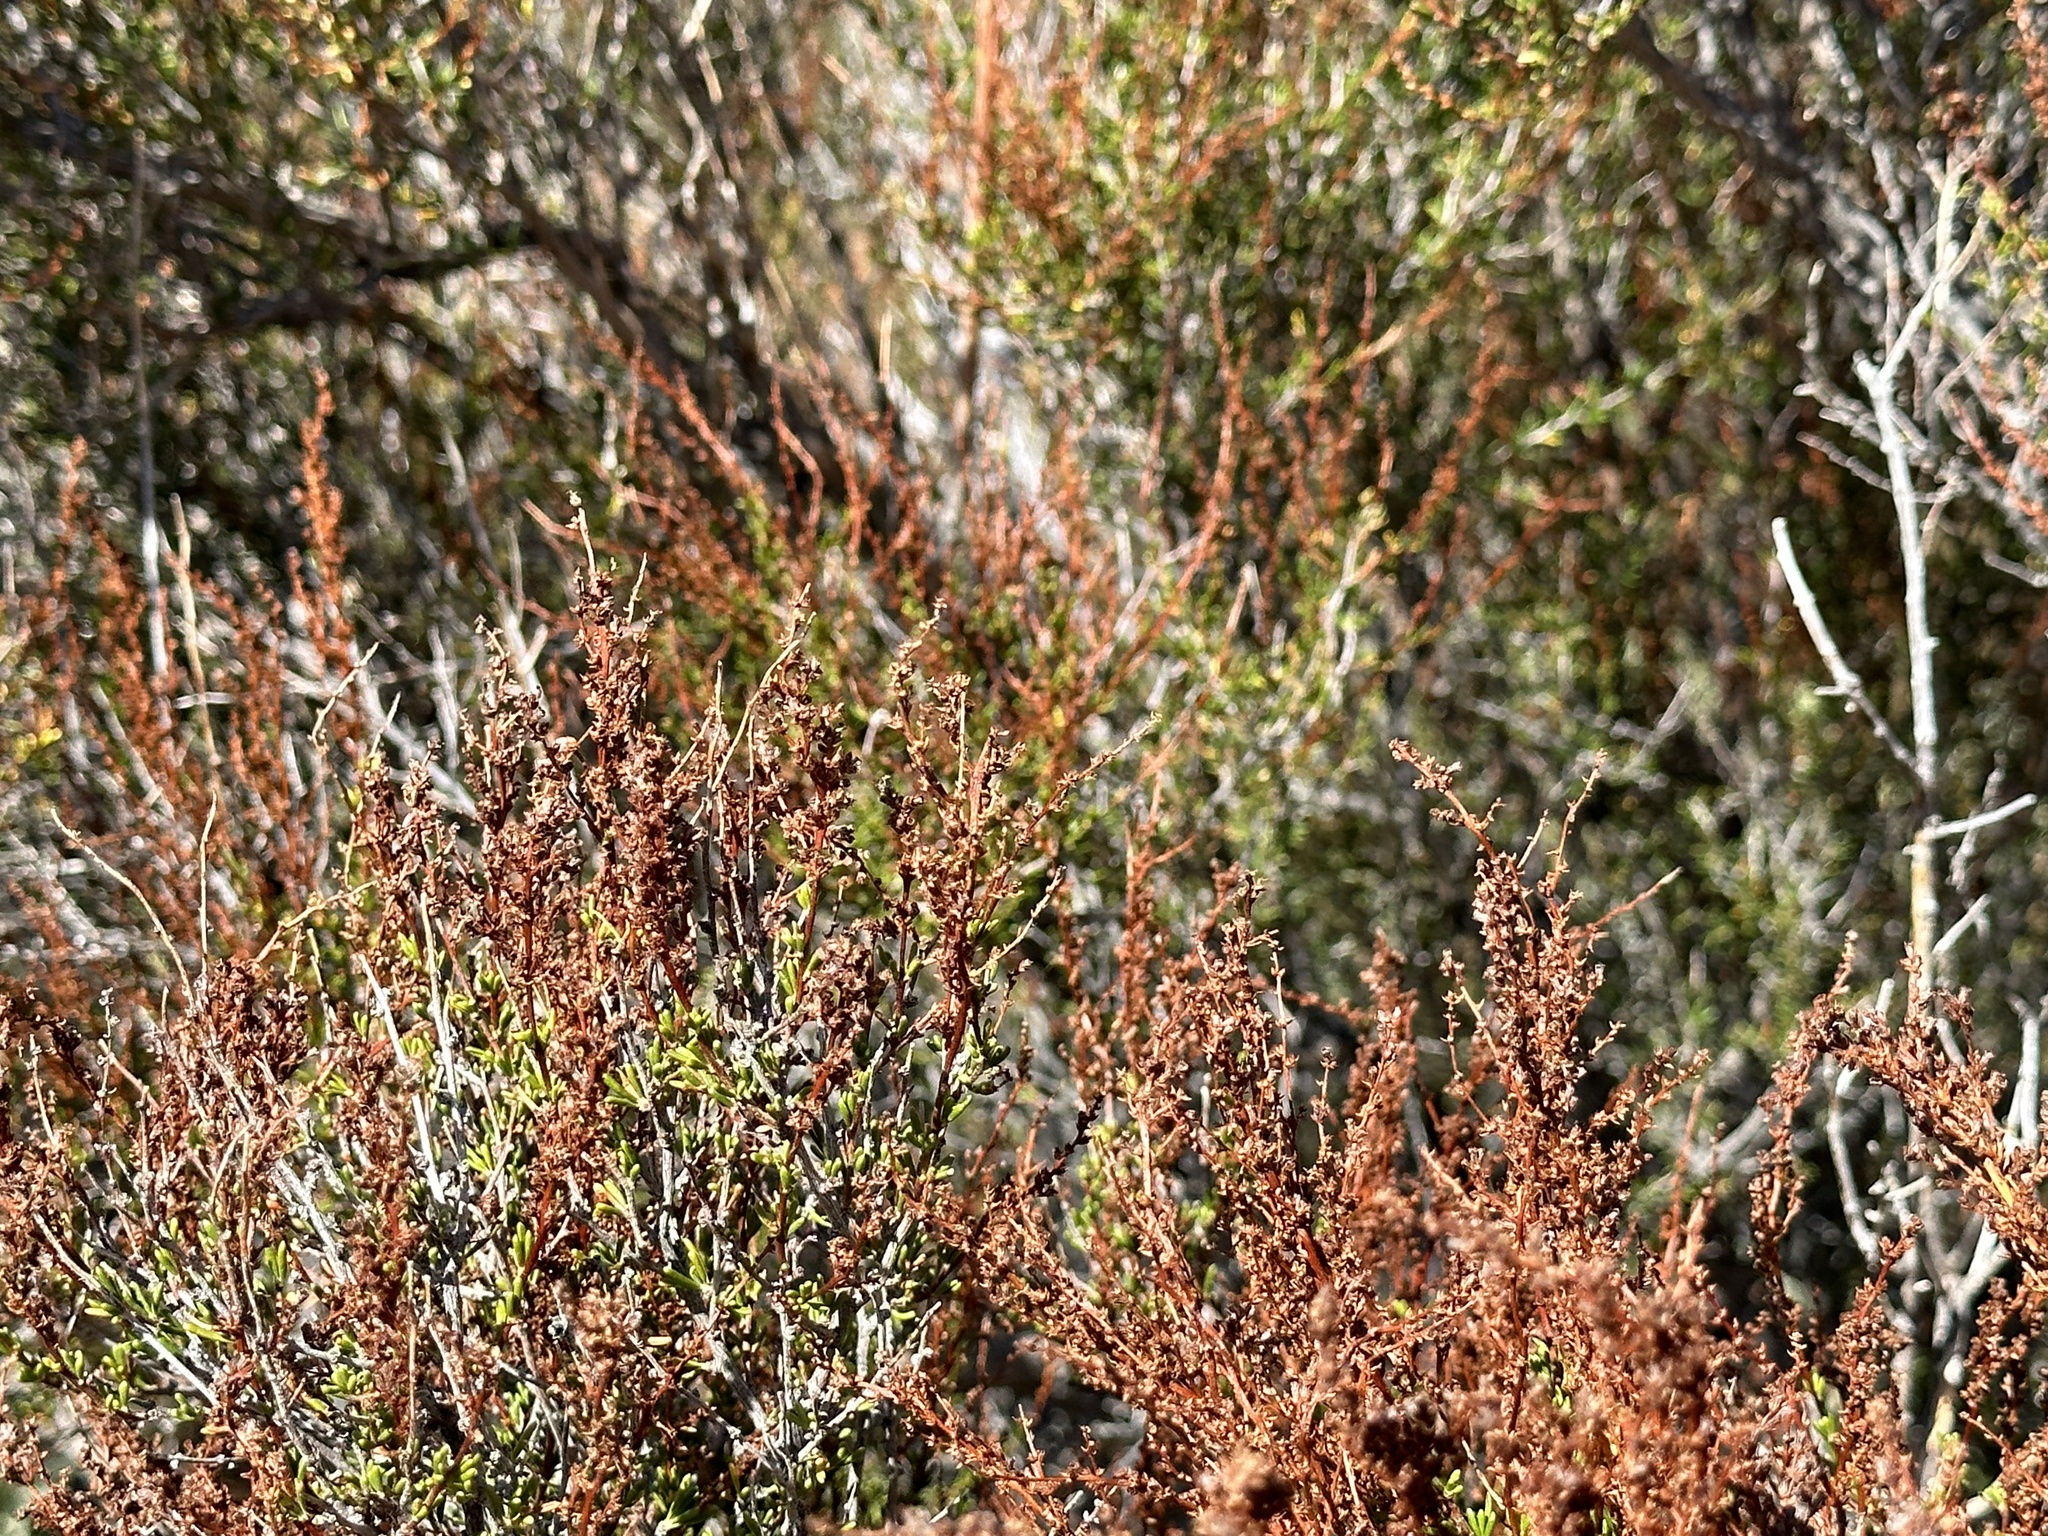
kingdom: Plantae
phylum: Tracheophyta
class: Magnoliopsida
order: Rosales
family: Rosaceae
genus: Adenostoma
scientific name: Adenostoma fasciculatum
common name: Chamise
